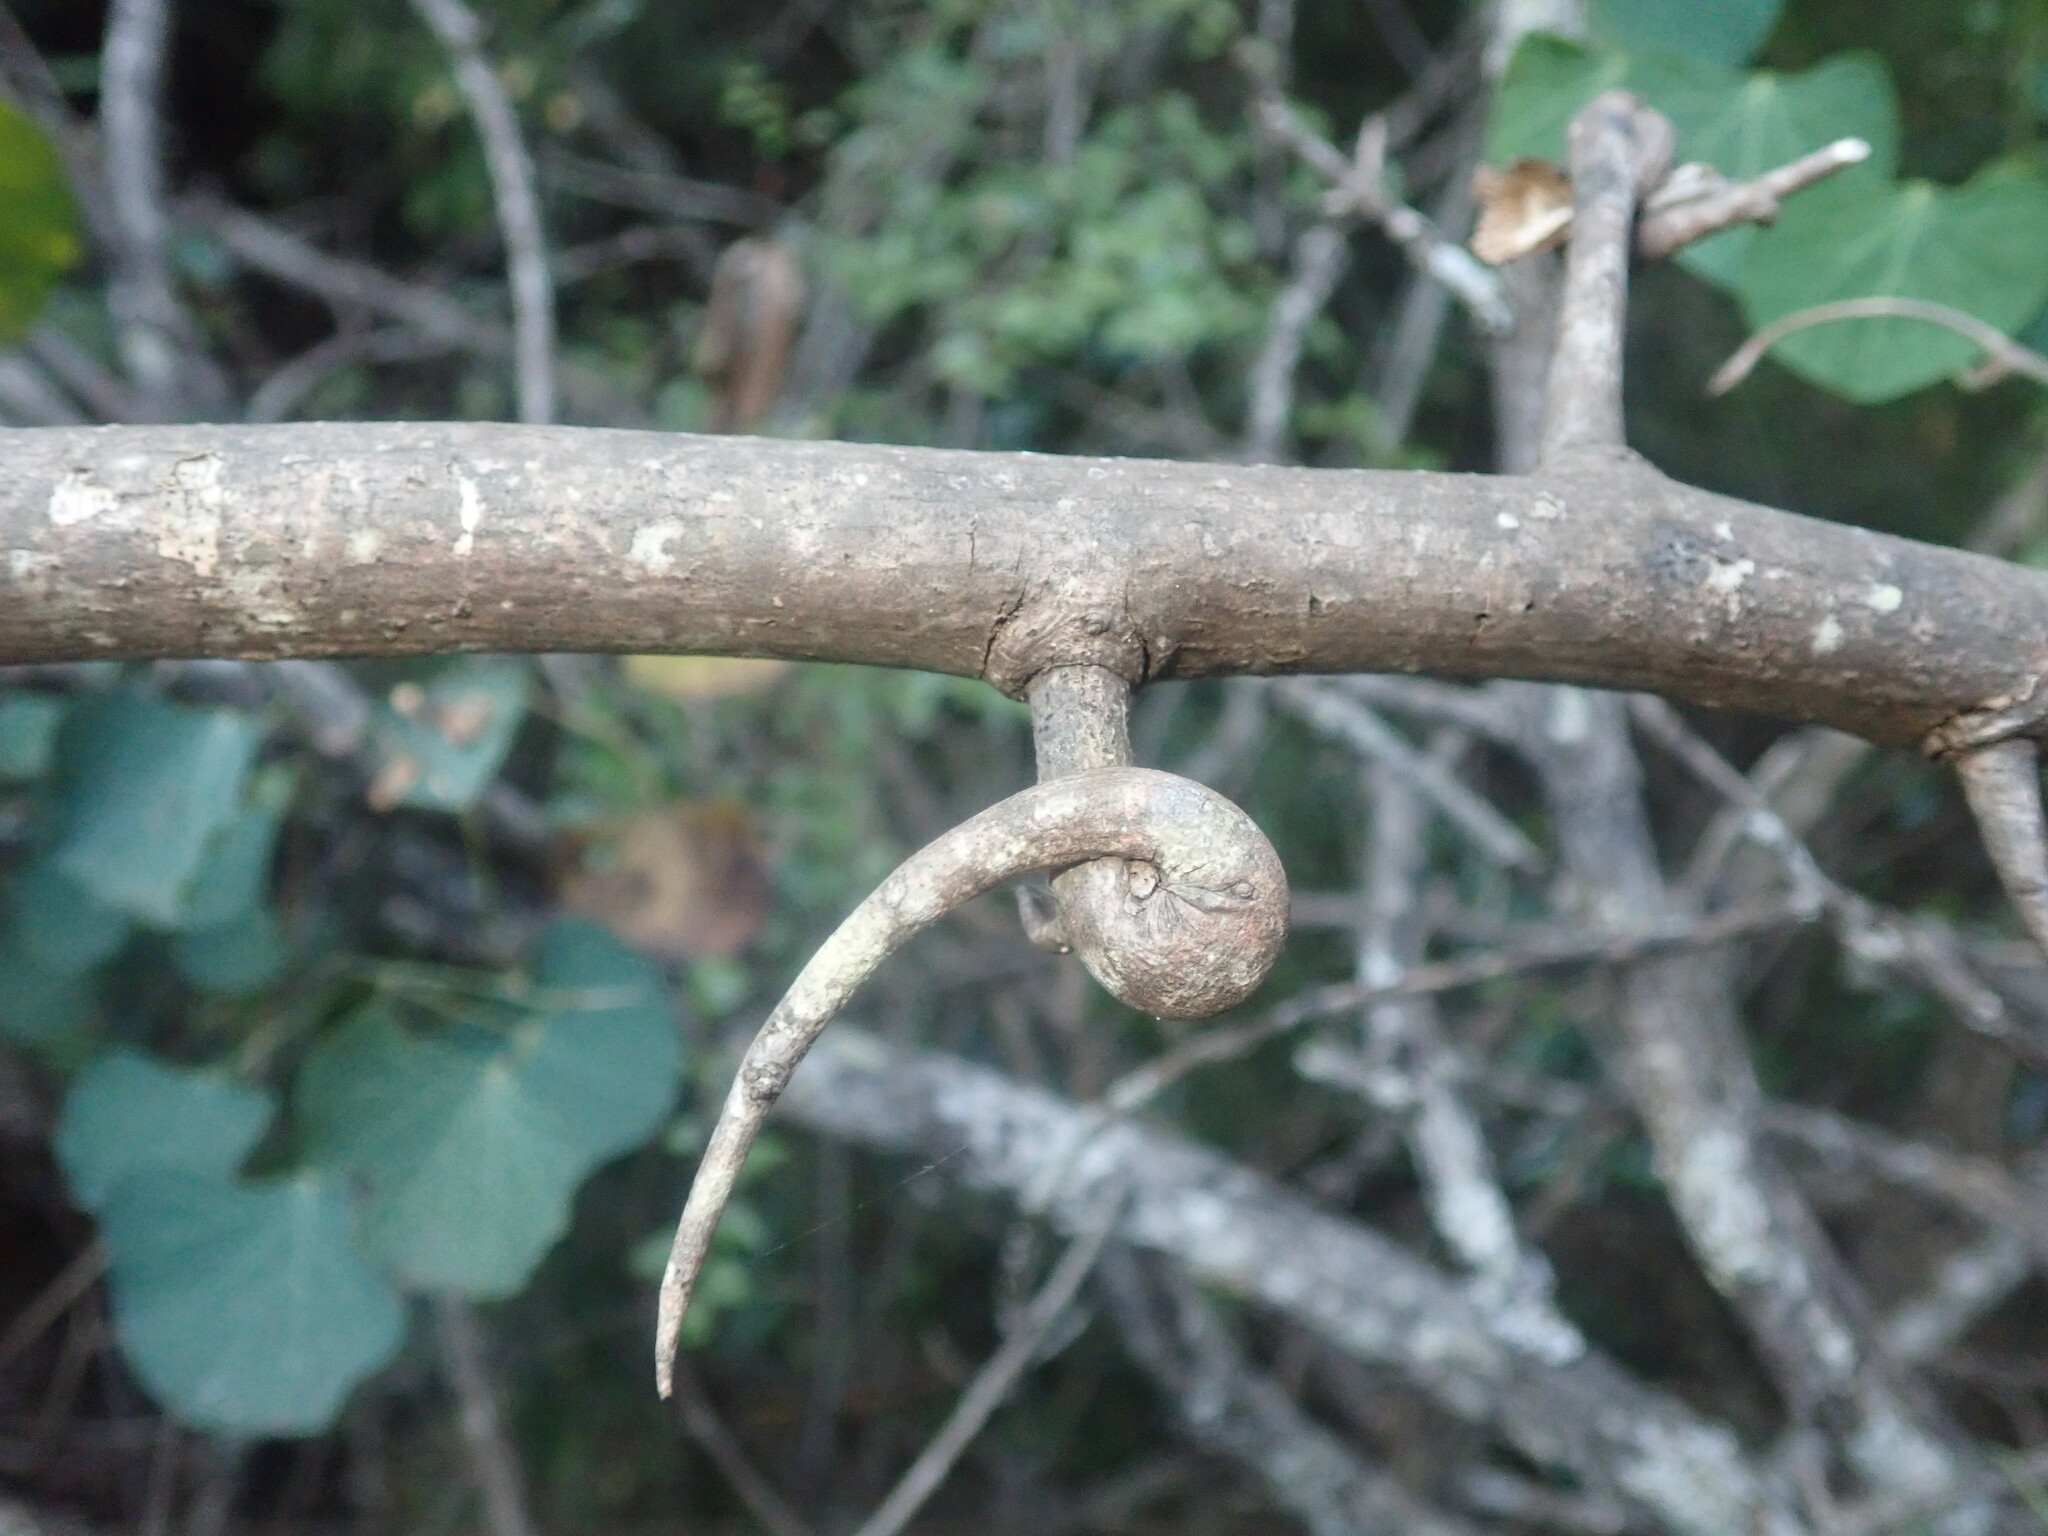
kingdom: Plantae
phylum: Tracheophyta
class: Magnoliopsida
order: Fabales
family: Fabaceae
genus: Dalbergia
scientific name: Dalbergia armata
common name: Hluhluwe climber
